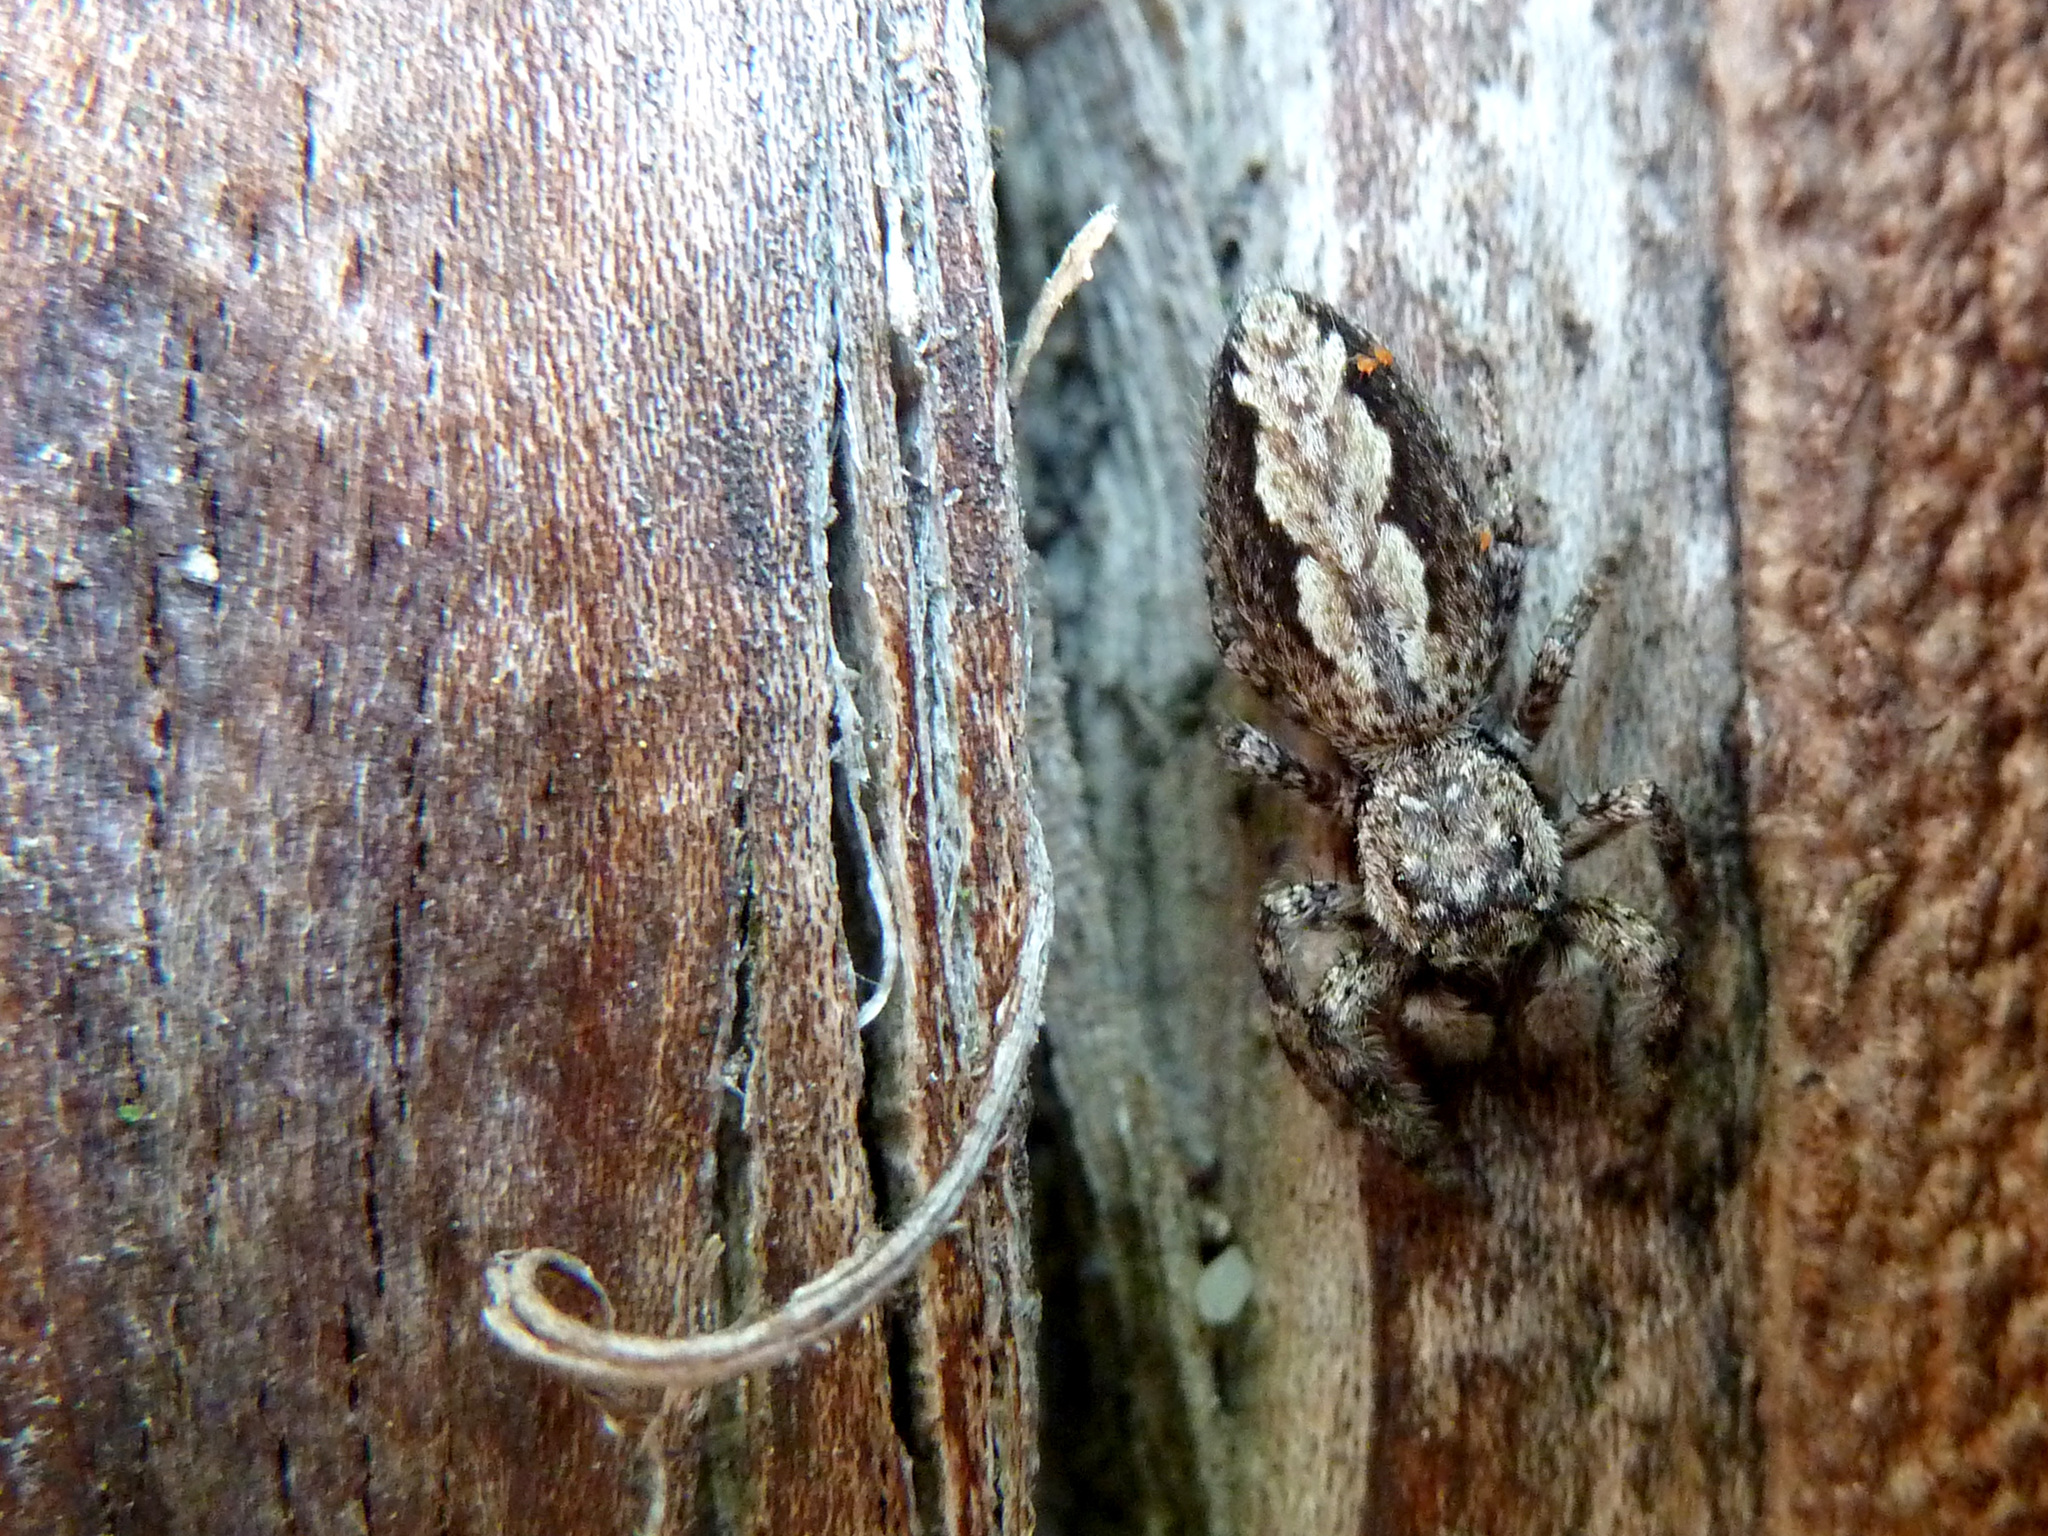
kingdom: Animalia
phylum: Arthropoda
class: Arachnida
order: Araneae
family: Salticidae
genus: Platycryptus
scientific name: Platycryptus undatus
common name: Tan jumping spider
